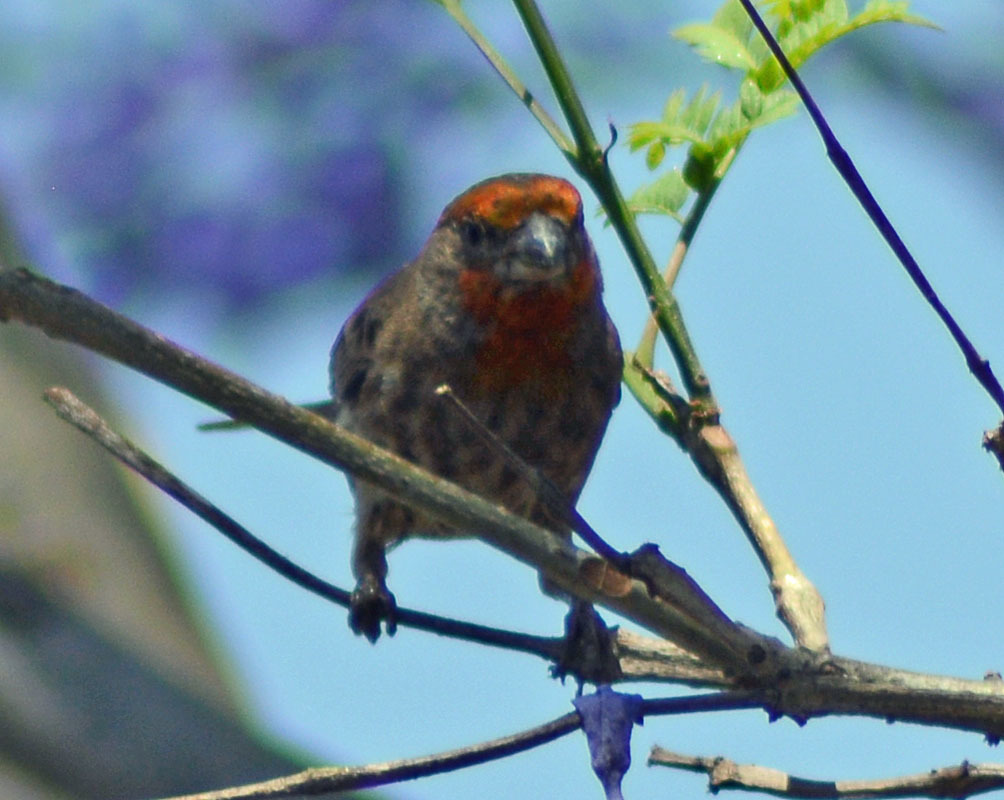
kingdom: Animalia
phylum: Chordata
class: Aves
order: Passeriformes
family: Fringillidae
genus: Haemorhous
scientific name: Haemorhous mexicanus
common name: House finch
